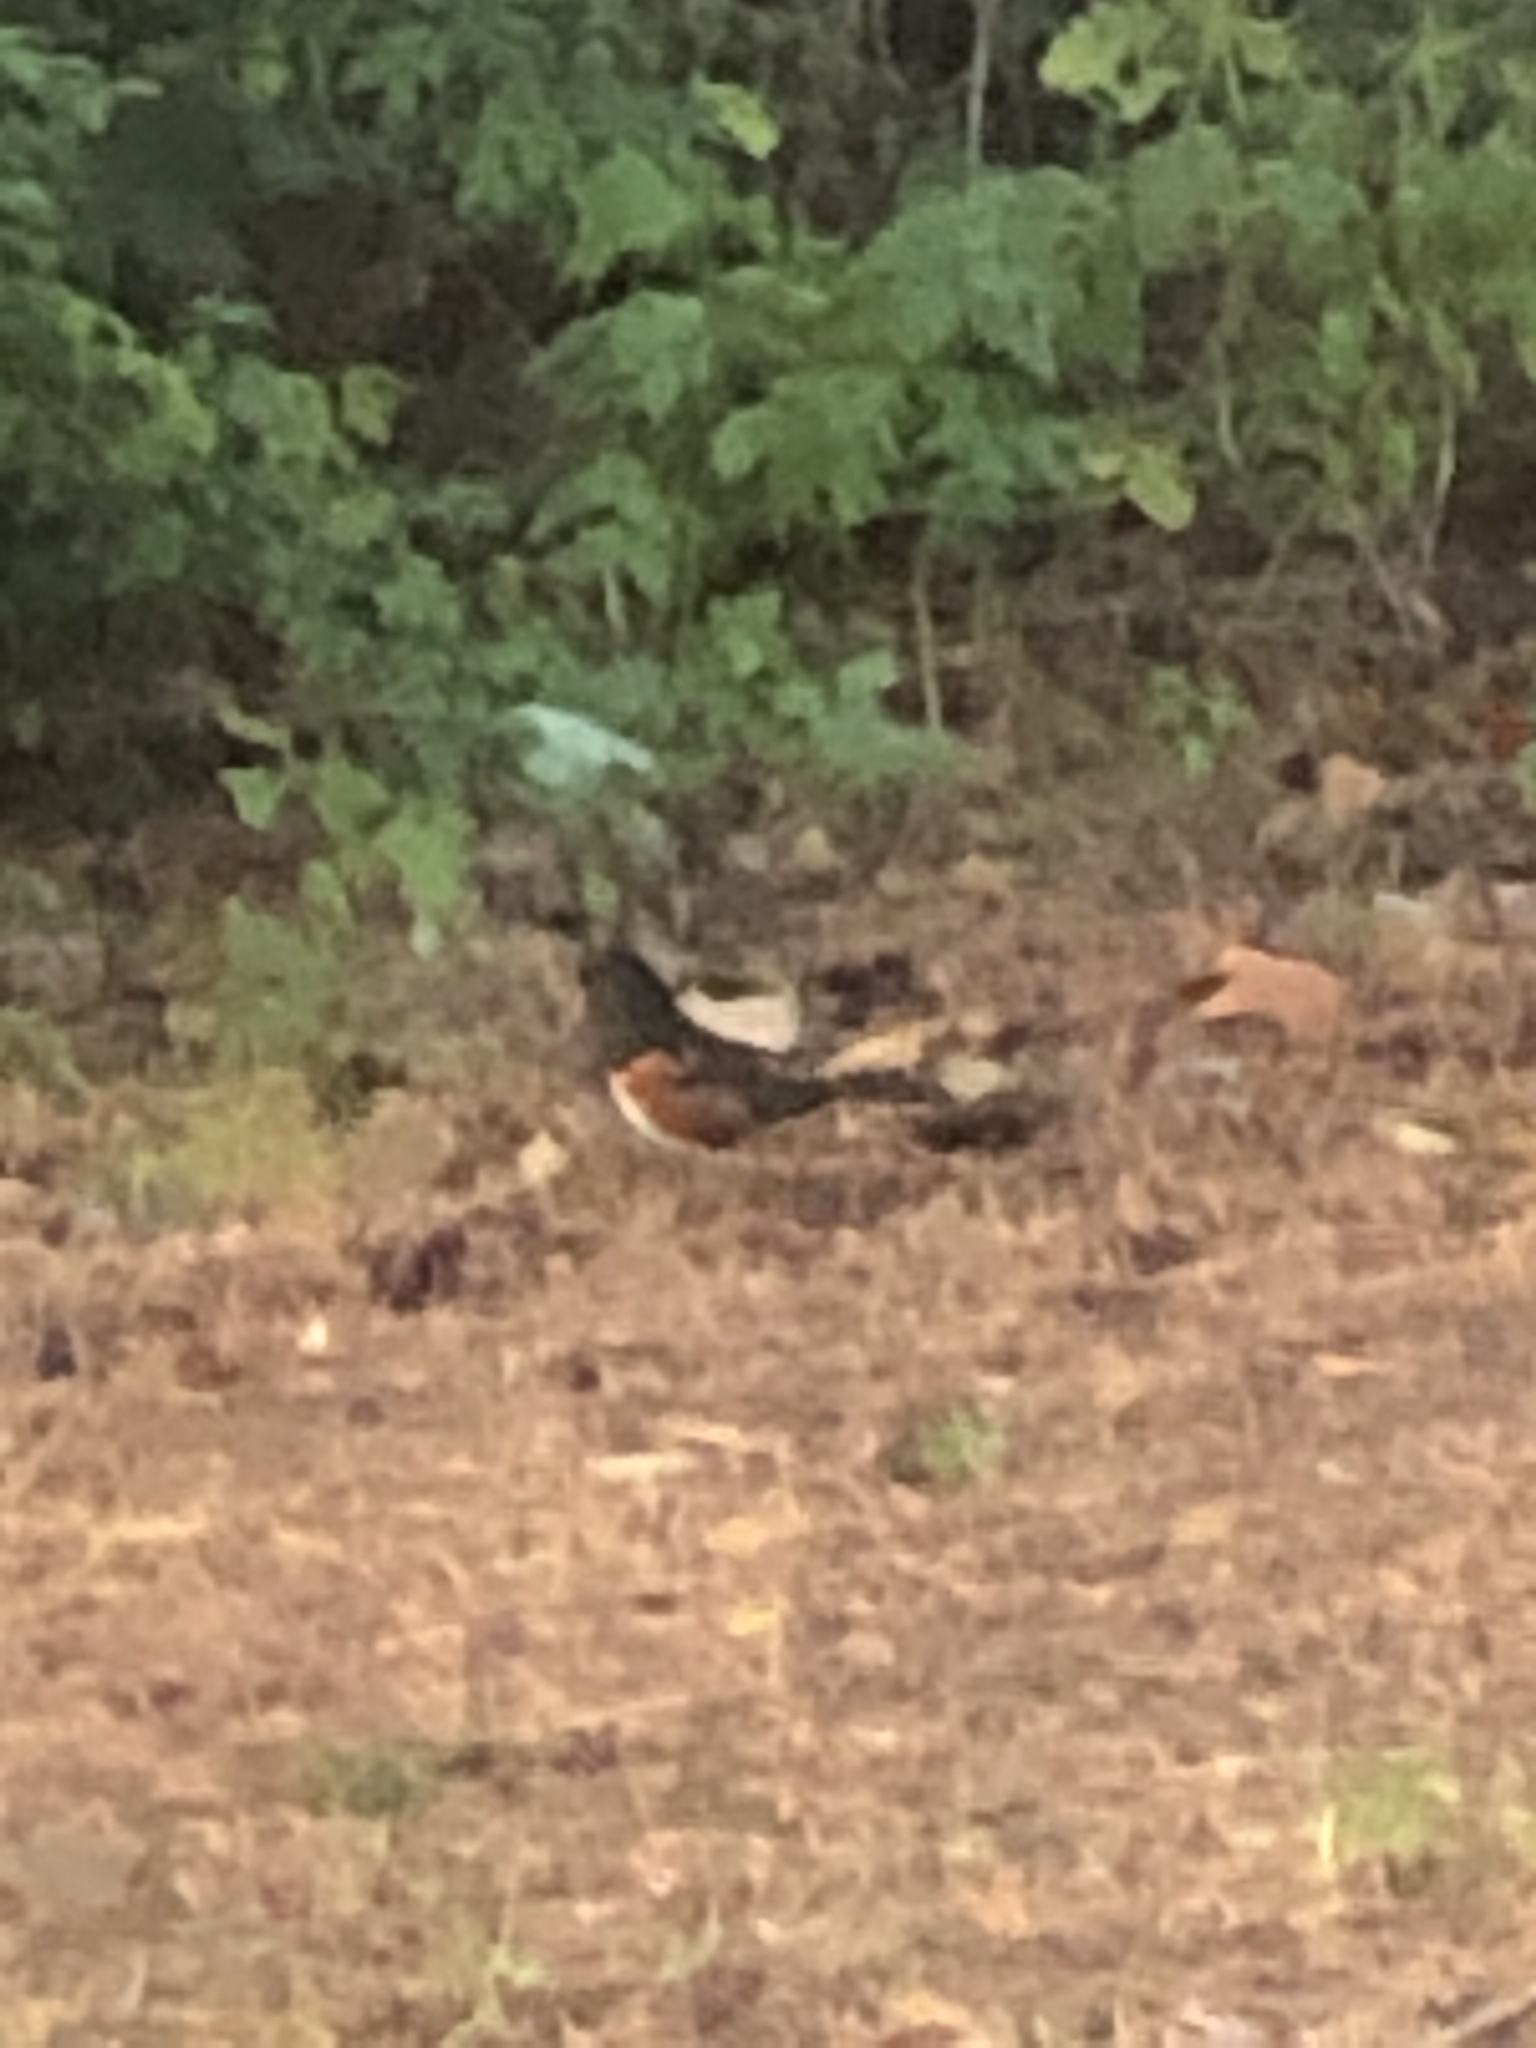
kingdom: Animalia
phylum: Chordata
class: Aves
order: Passeriformes
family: Passerellidae
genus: Pipilo
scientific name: Pipilo maculatus
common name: Spotted towhee
